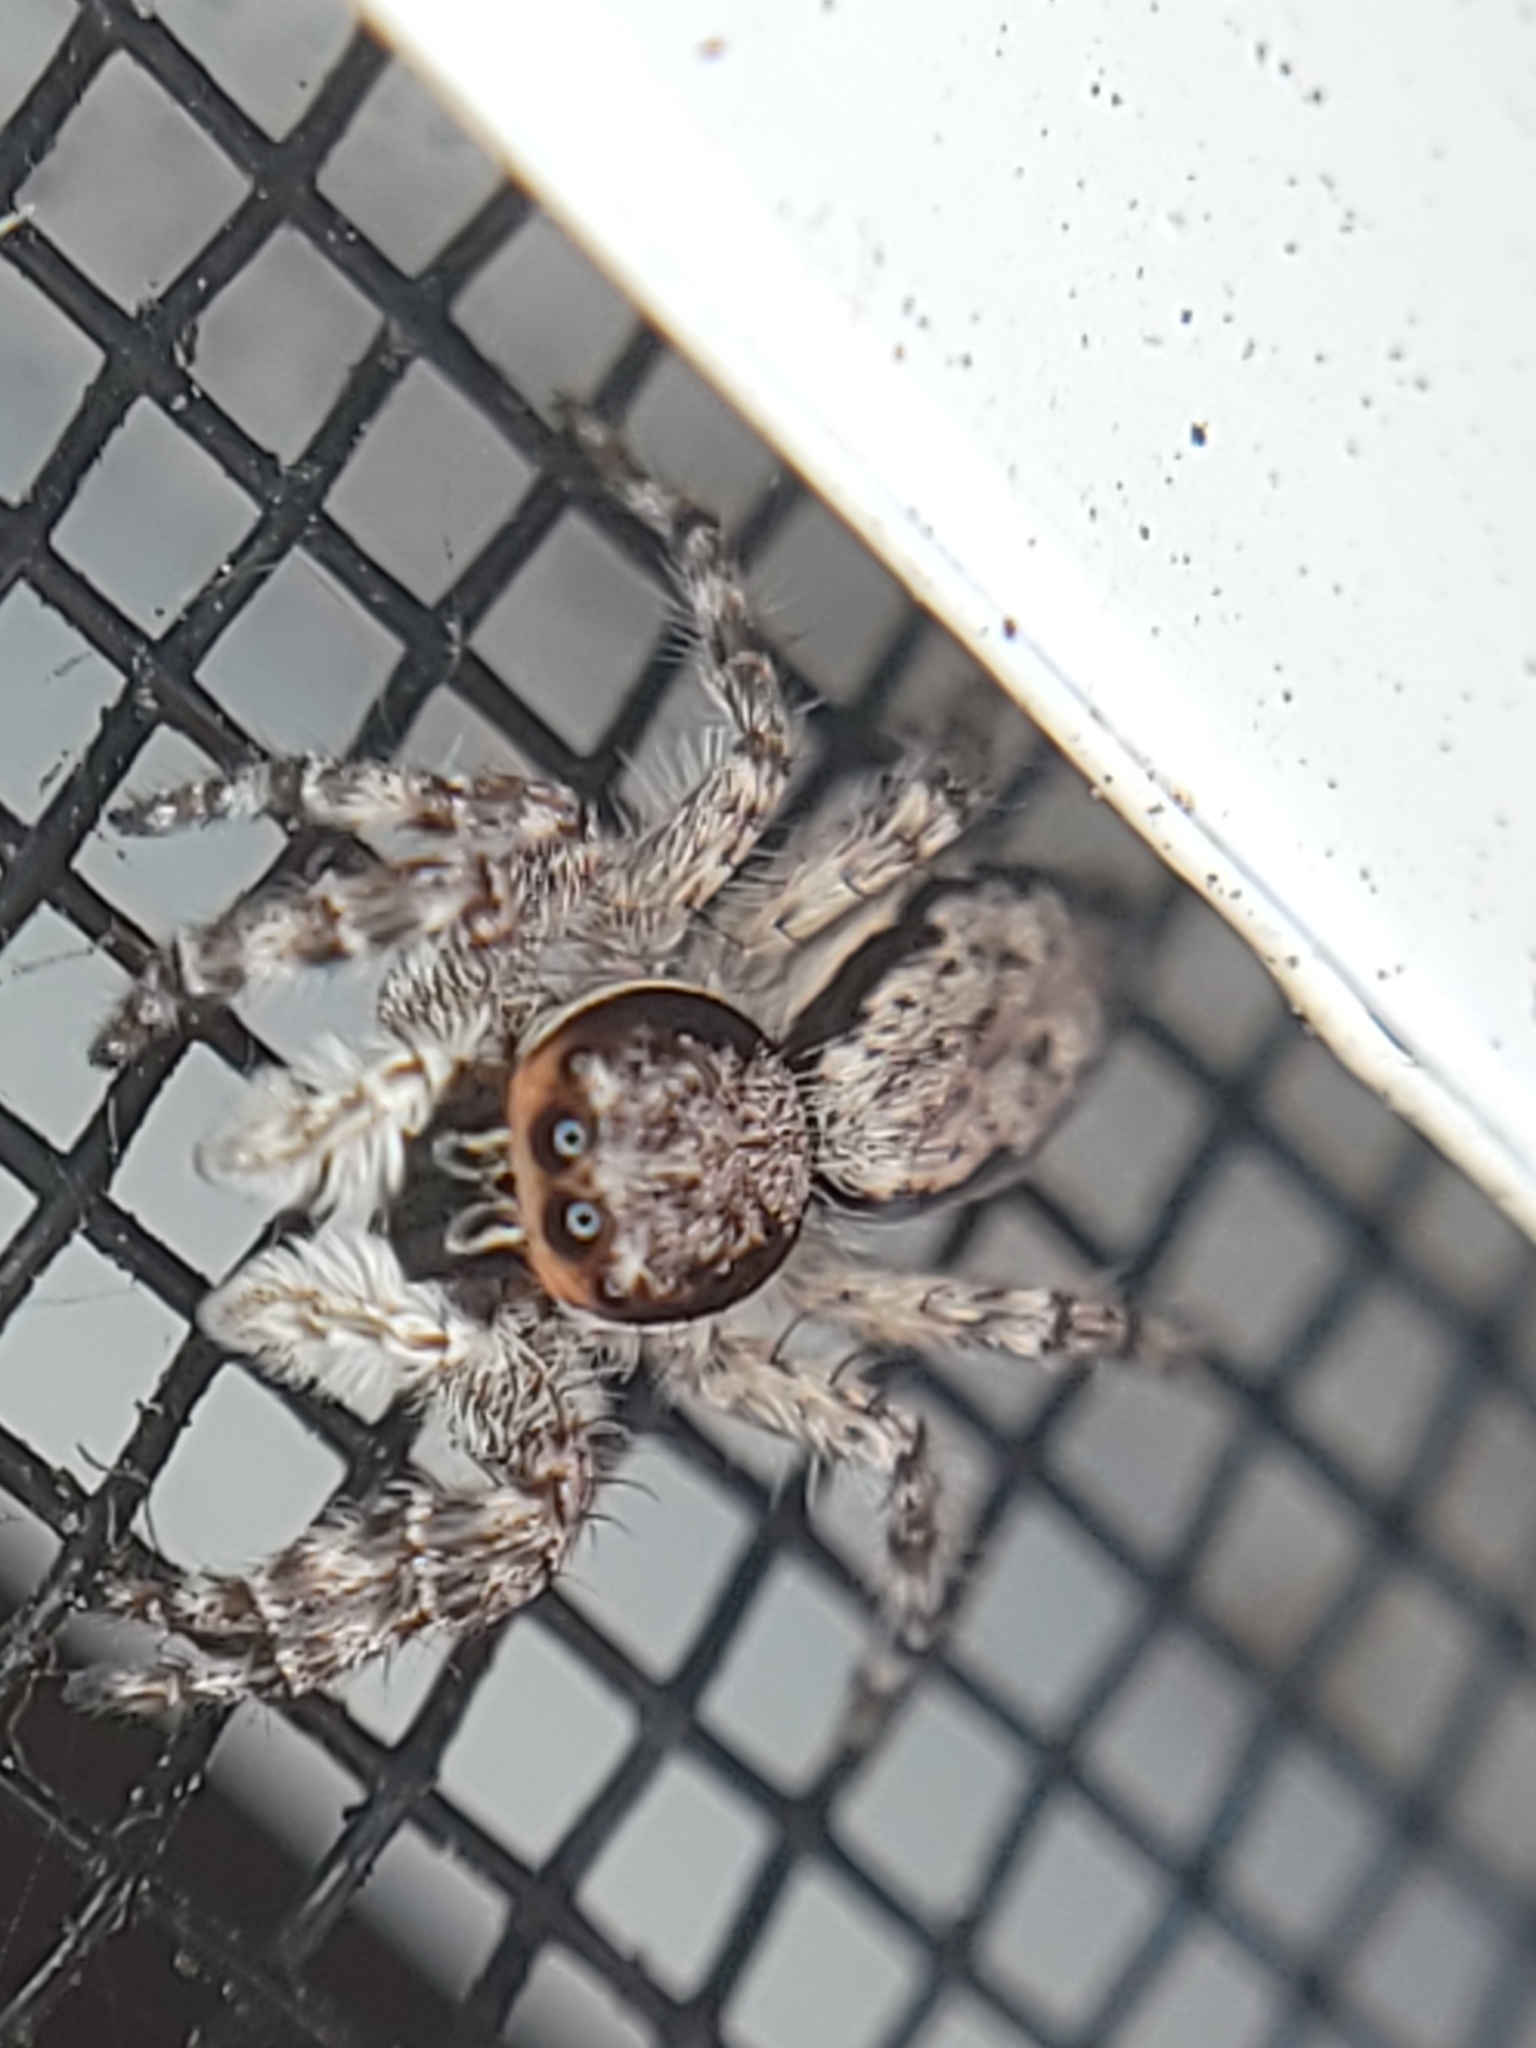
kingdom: Animalia
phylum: Arthropoda
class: Arachnida
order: Araneae
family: Salticidae
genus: Menemerus
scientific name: Menemerus bivittatus
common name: Gray wall jumper
